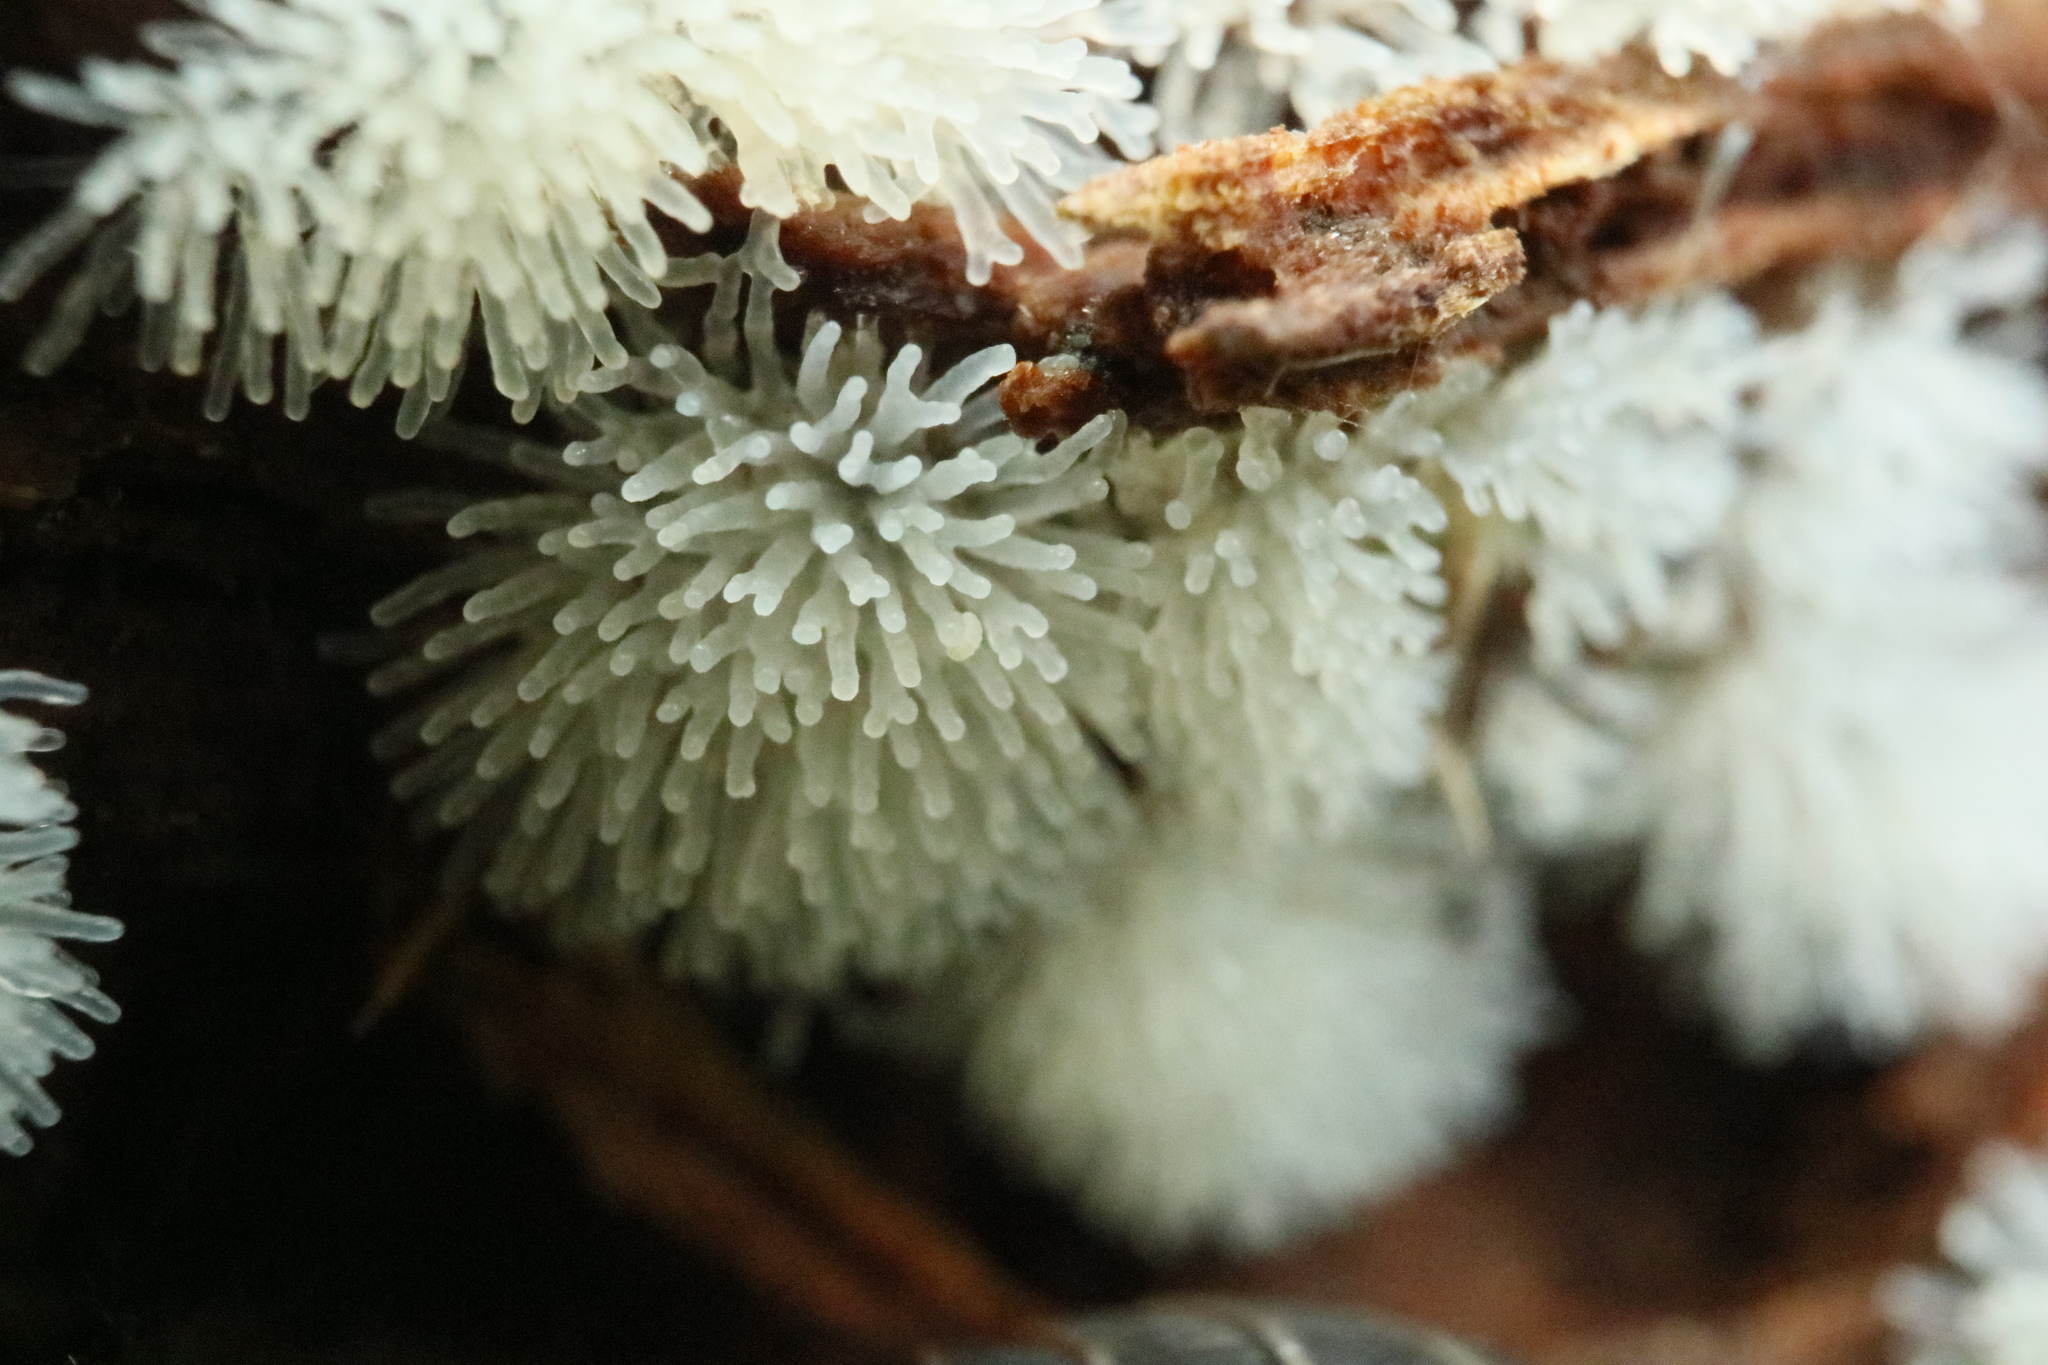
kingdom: Protozoa
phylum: Mycetozoa
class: Protosteliomycetes
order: Ceratiomyxales
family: Ceratiomyxaceae
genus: Ceratiomyxa
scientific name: Ceratiomyxa fruticulosa
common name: Honeycomb coral slime mold
